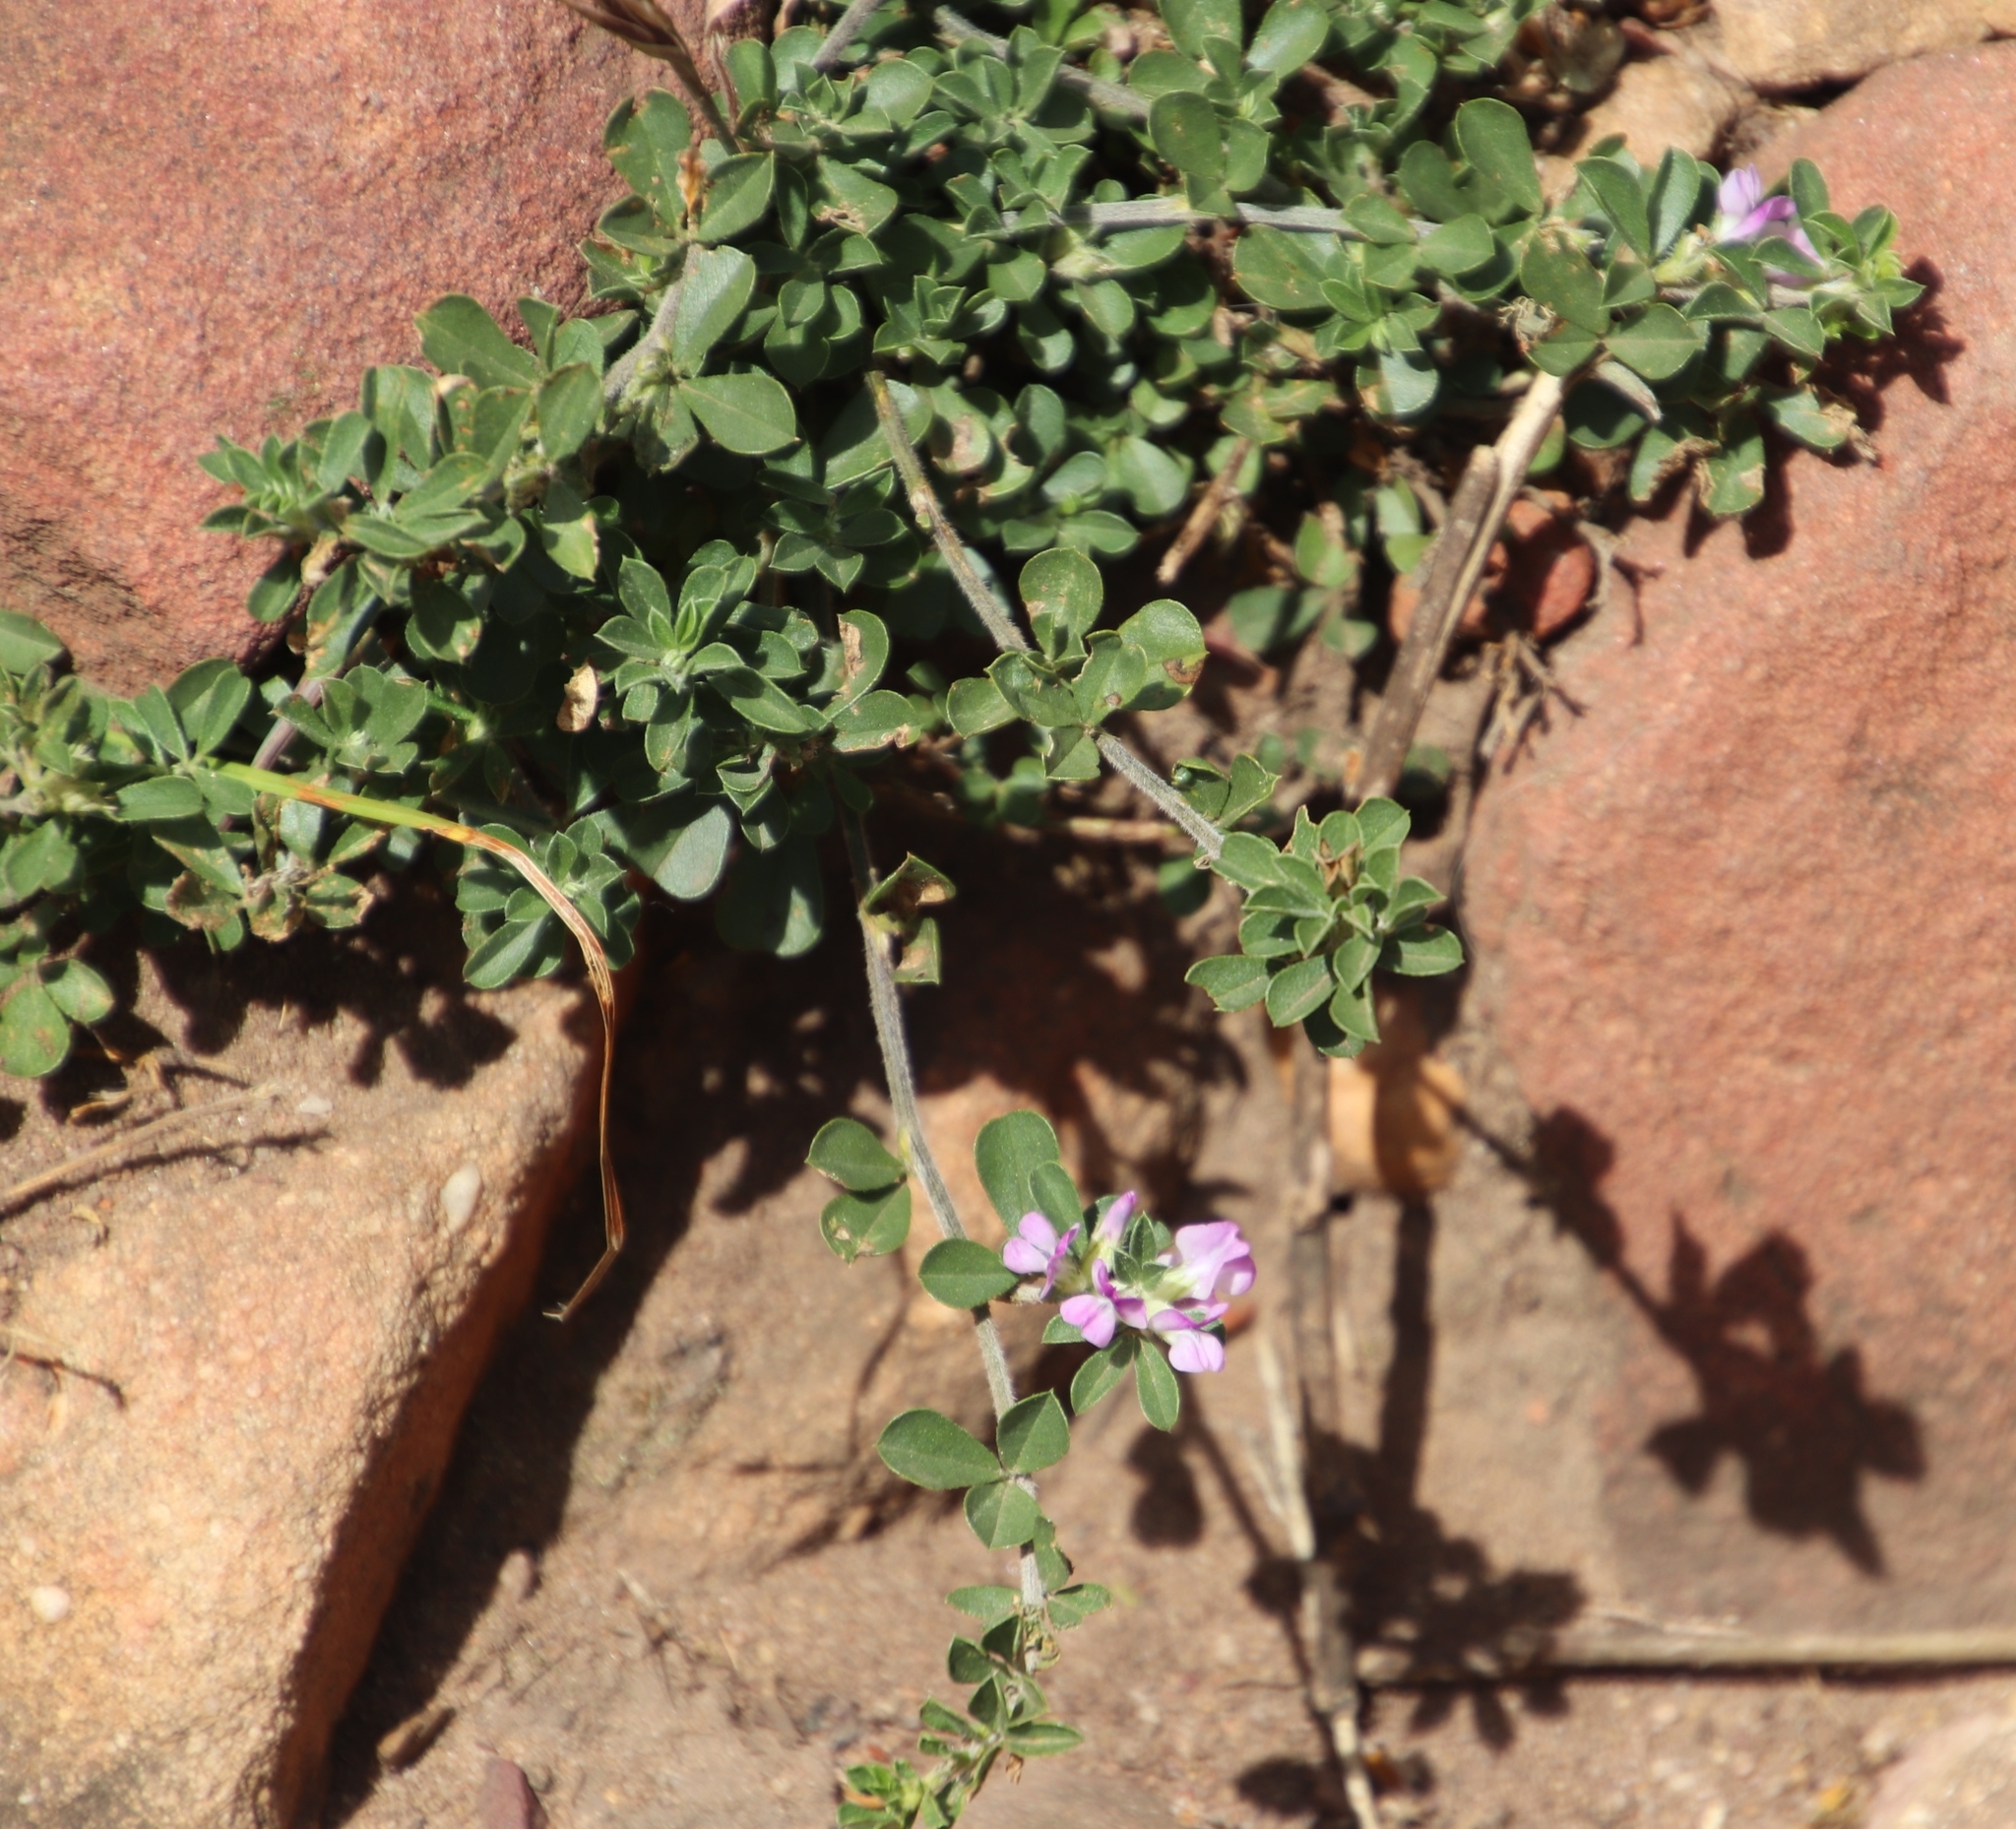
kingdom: Plantae
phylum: Tracheophyta
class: Magnoliopsida
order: Fabales
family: Fabaceae
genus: Psoralea
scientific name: Psoralea
